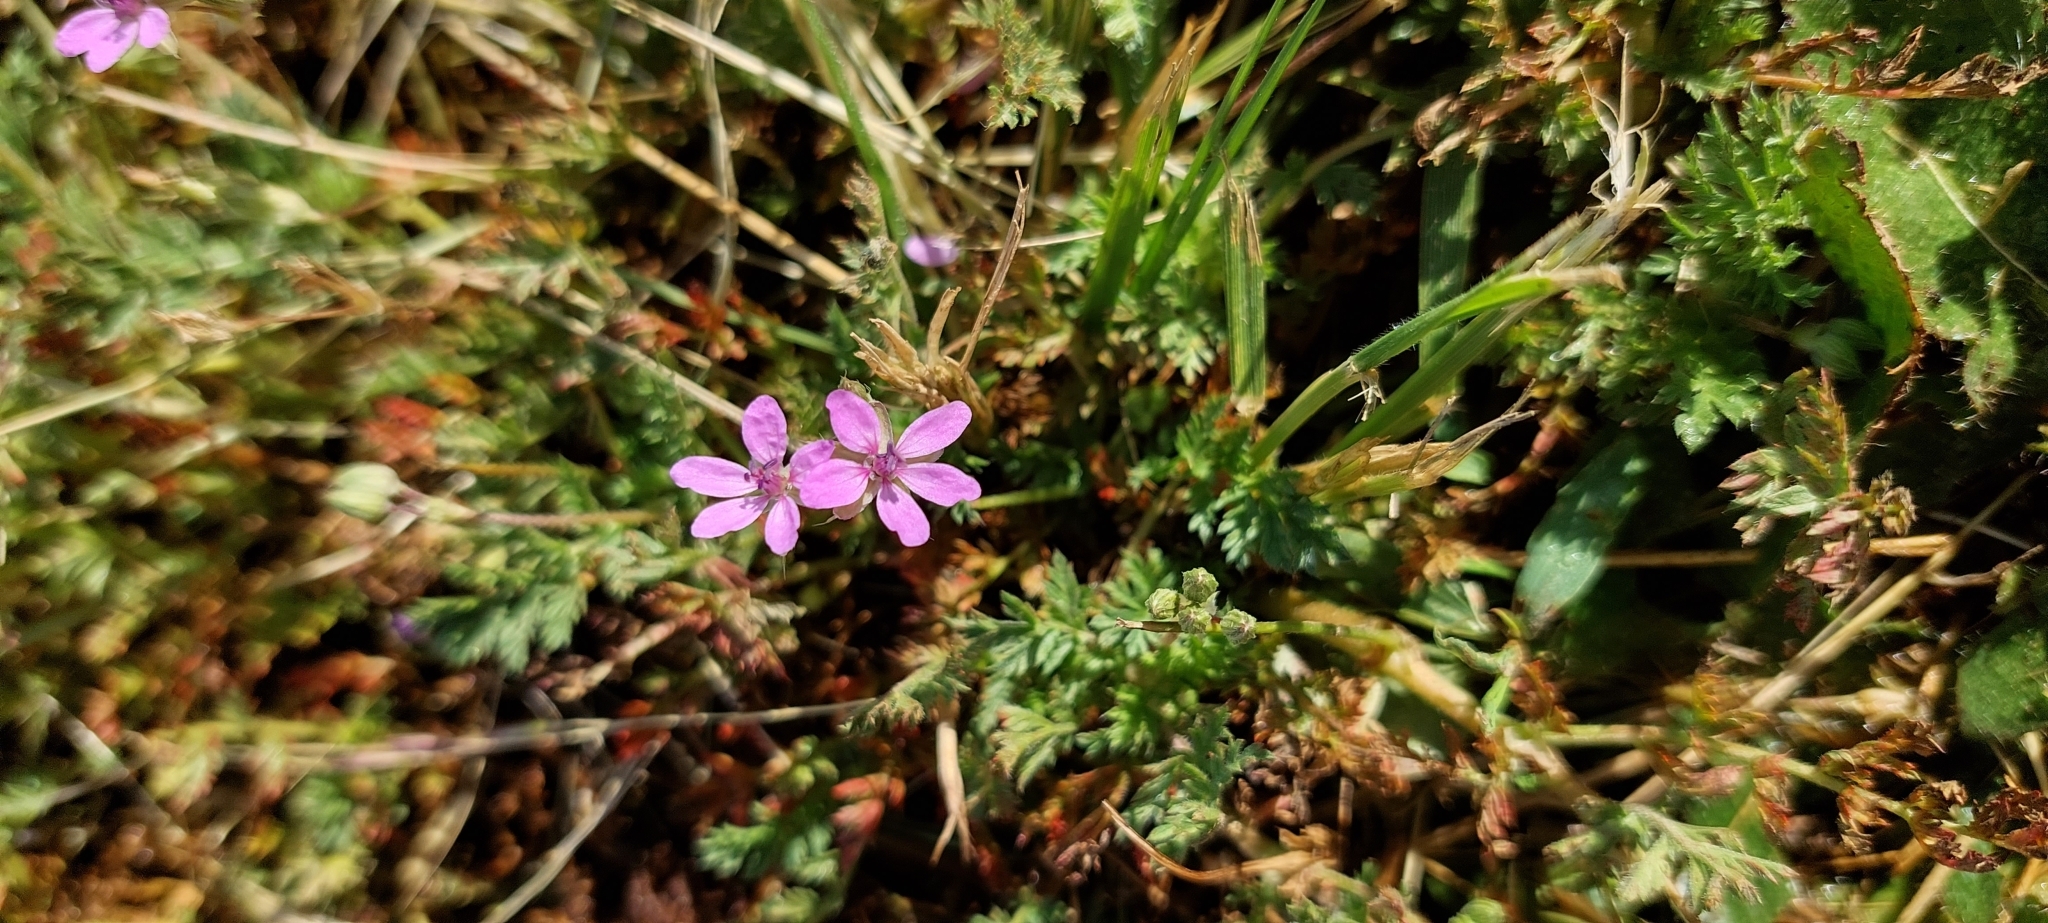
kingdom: Plantae
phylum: Tracheophyta
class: Magnoliopsida
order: Geraniales
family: Geraniaceae
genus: Erodium
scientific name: Erodium malacoides
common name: Soft stork's-bill
